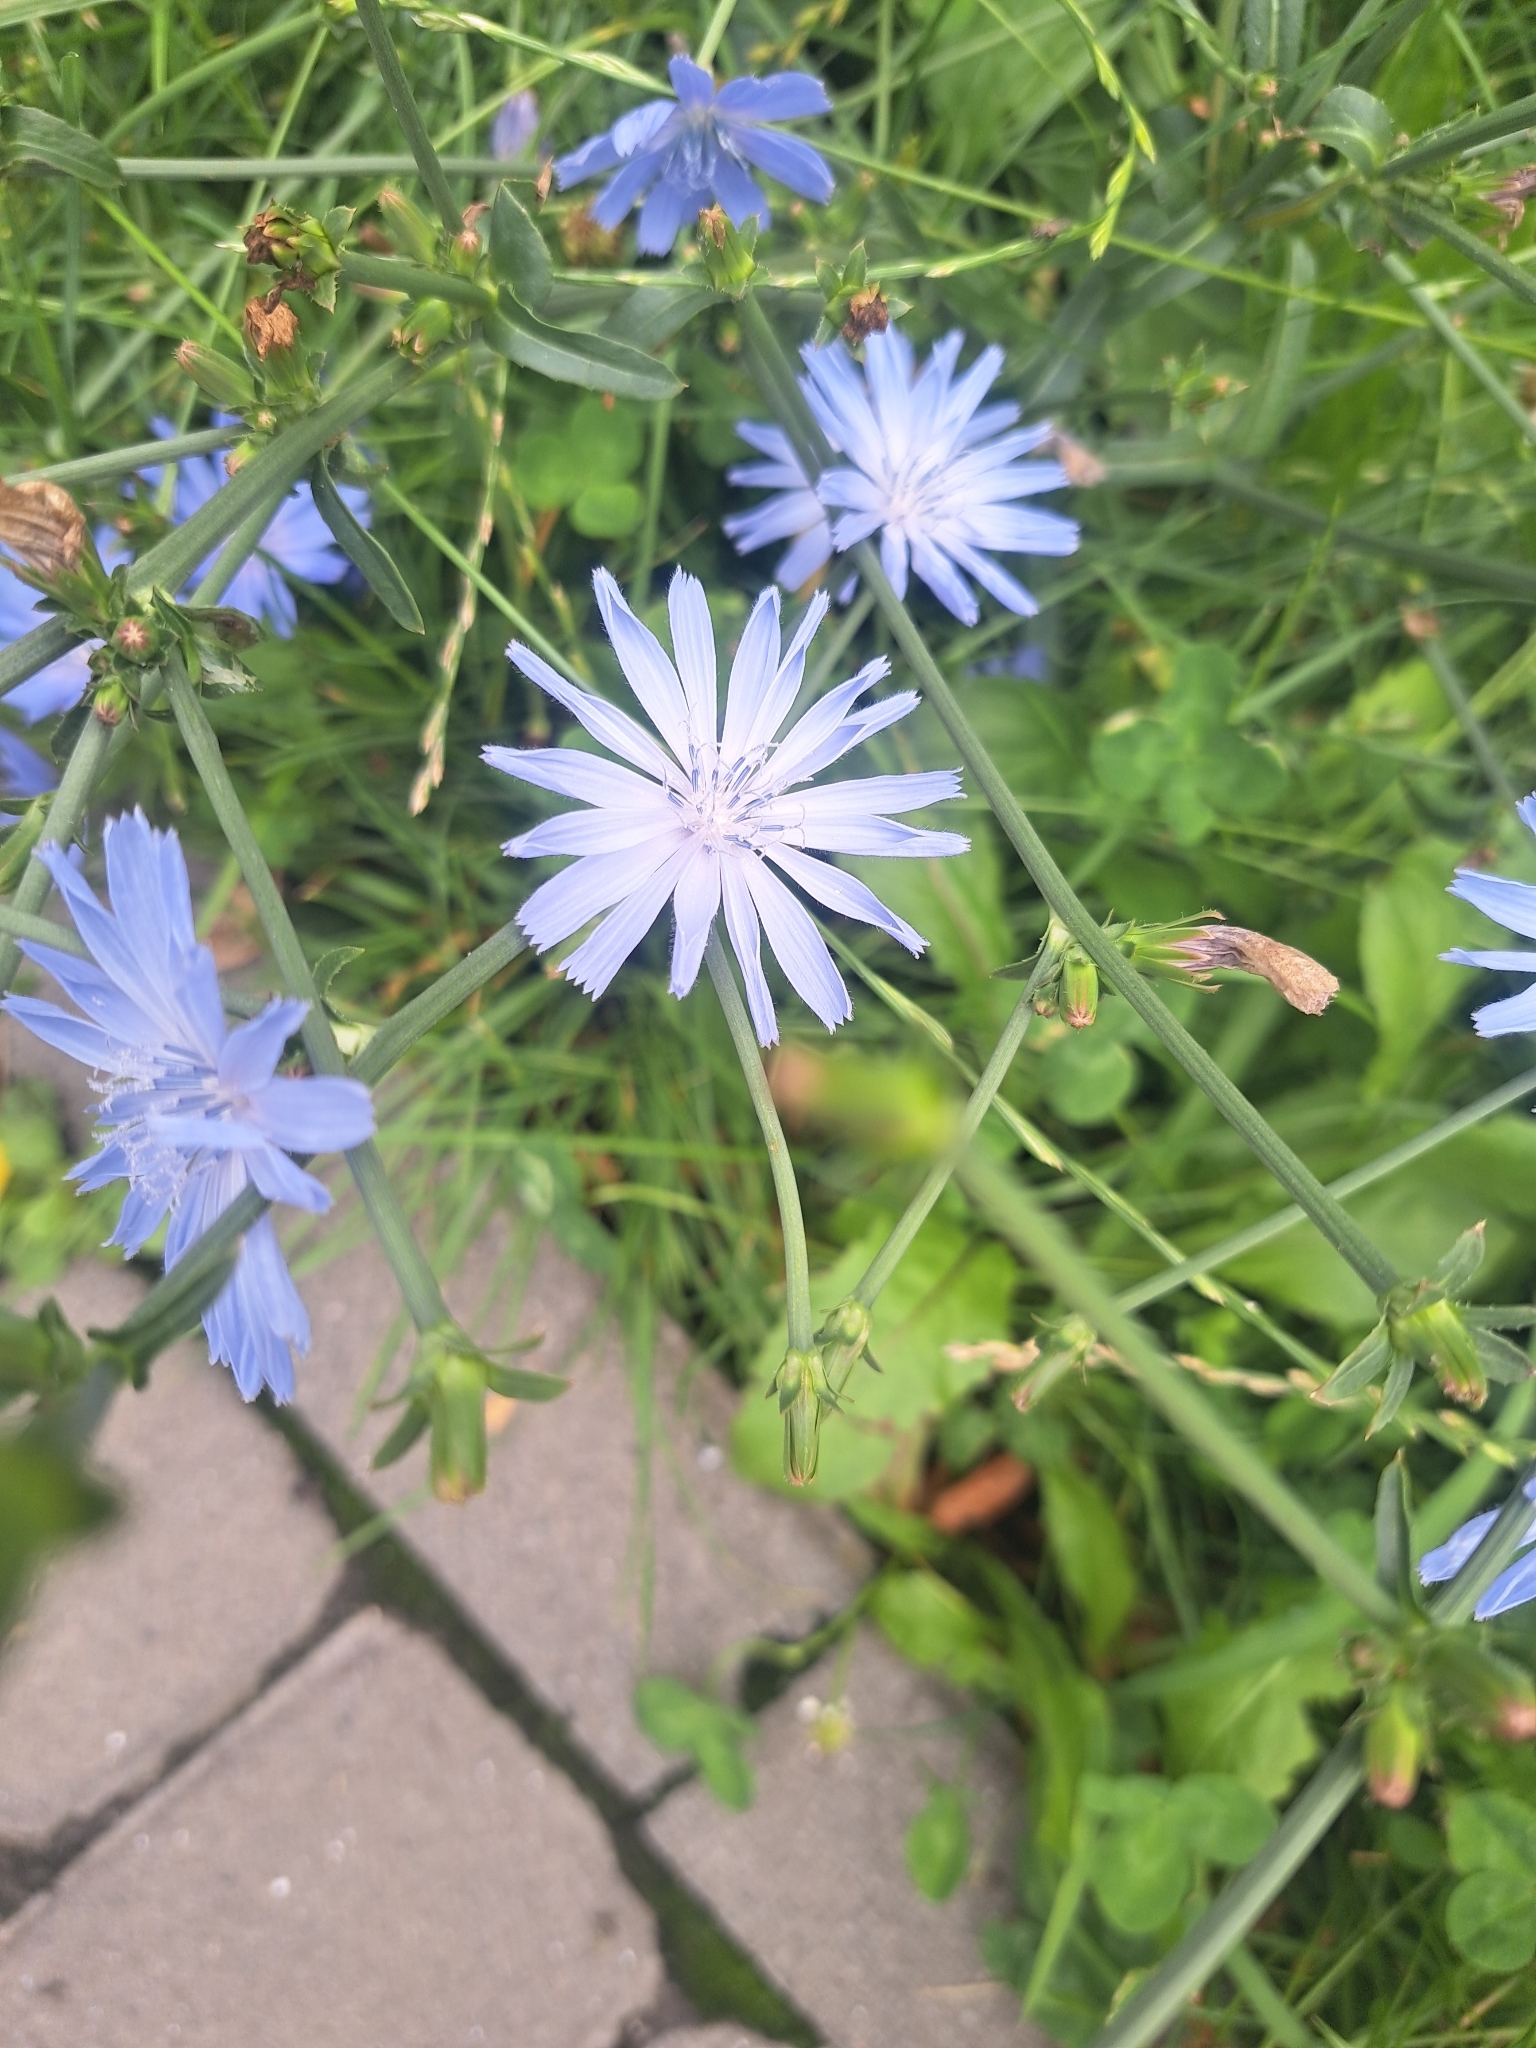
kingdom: Plantae
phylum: Tracheophyta
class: Magnoliopsida
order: Asterales
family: Asteraceae
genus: Cichorium
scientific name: Cichorium intybus
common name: Chicory
